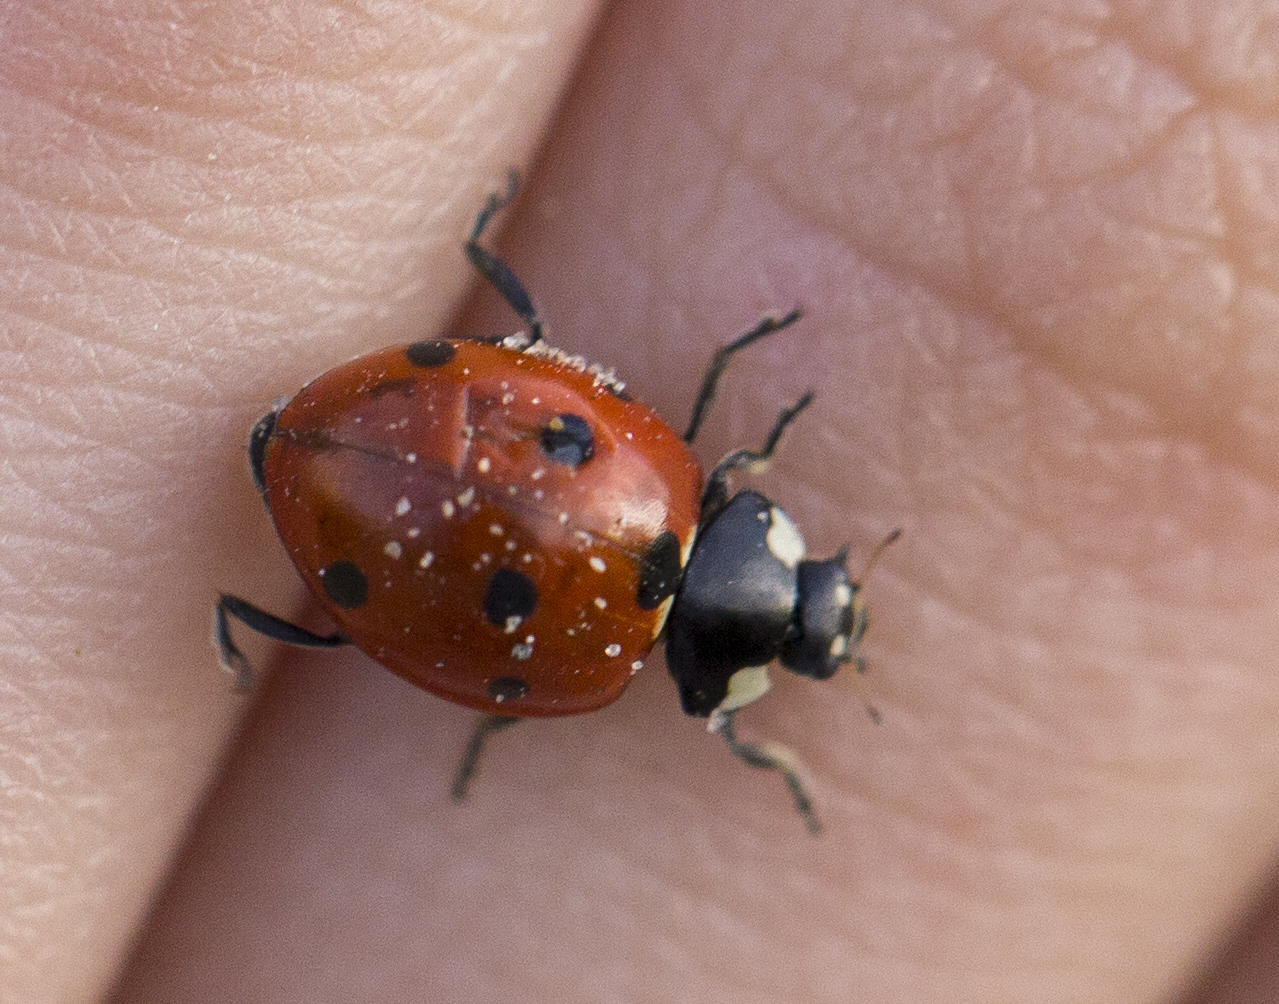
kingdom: Animalia
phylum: Arthropoda
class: Insecta
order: Coleoptera
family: Coccinellidae
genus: Coccinella
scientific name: Coccinella septempunctata
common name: Sevenspotted lady beetle
